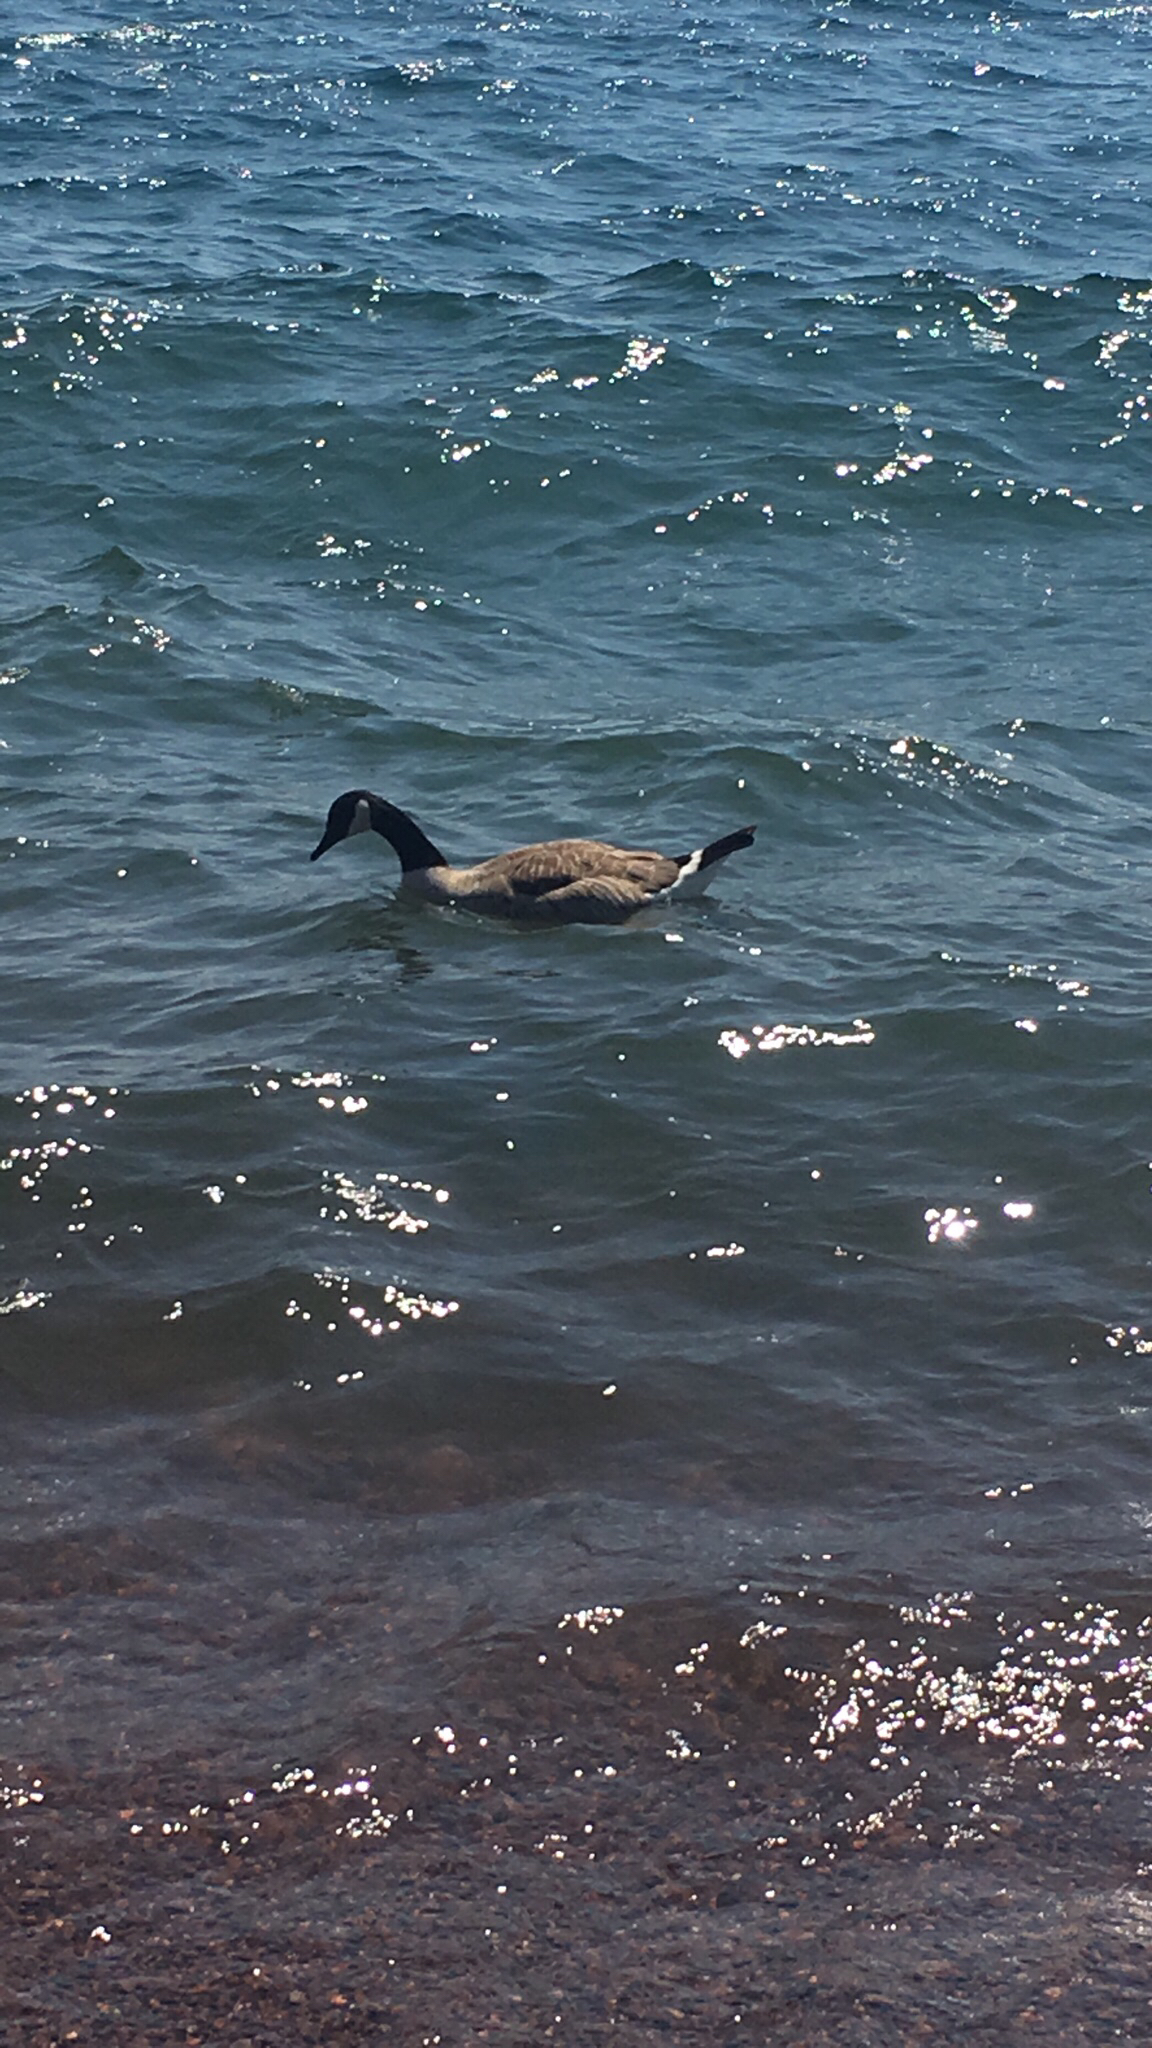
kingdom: Animalia
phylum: Chordata
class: Aves
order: Anseriformes
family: Anatidae
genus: Branta
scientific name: Branta canadensis
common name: Canada goose
